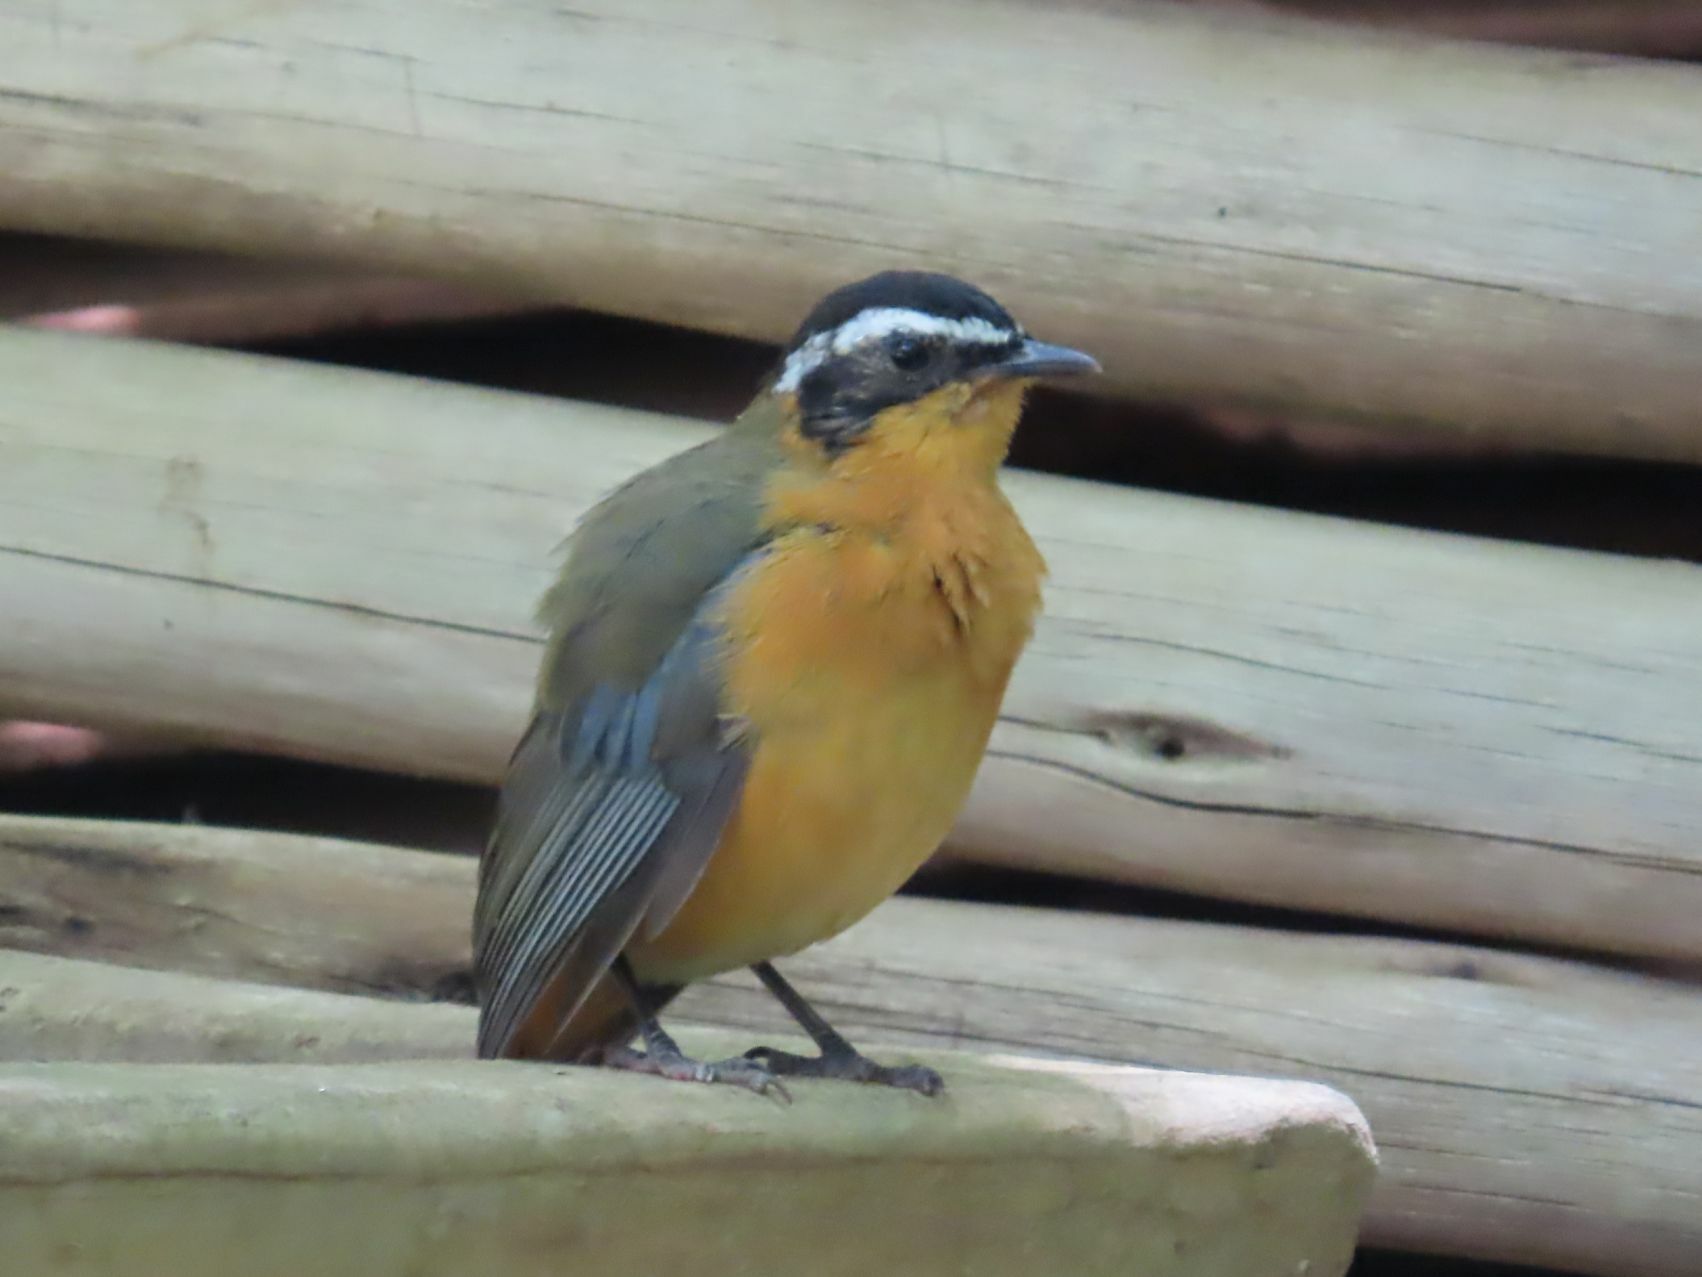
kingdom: Animalia
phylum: Chordata
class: Aves
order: Passeriformes
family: Muscicapidae
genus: Cossypha
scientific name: Cossypha heuglini
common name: White-browed robin-chat
